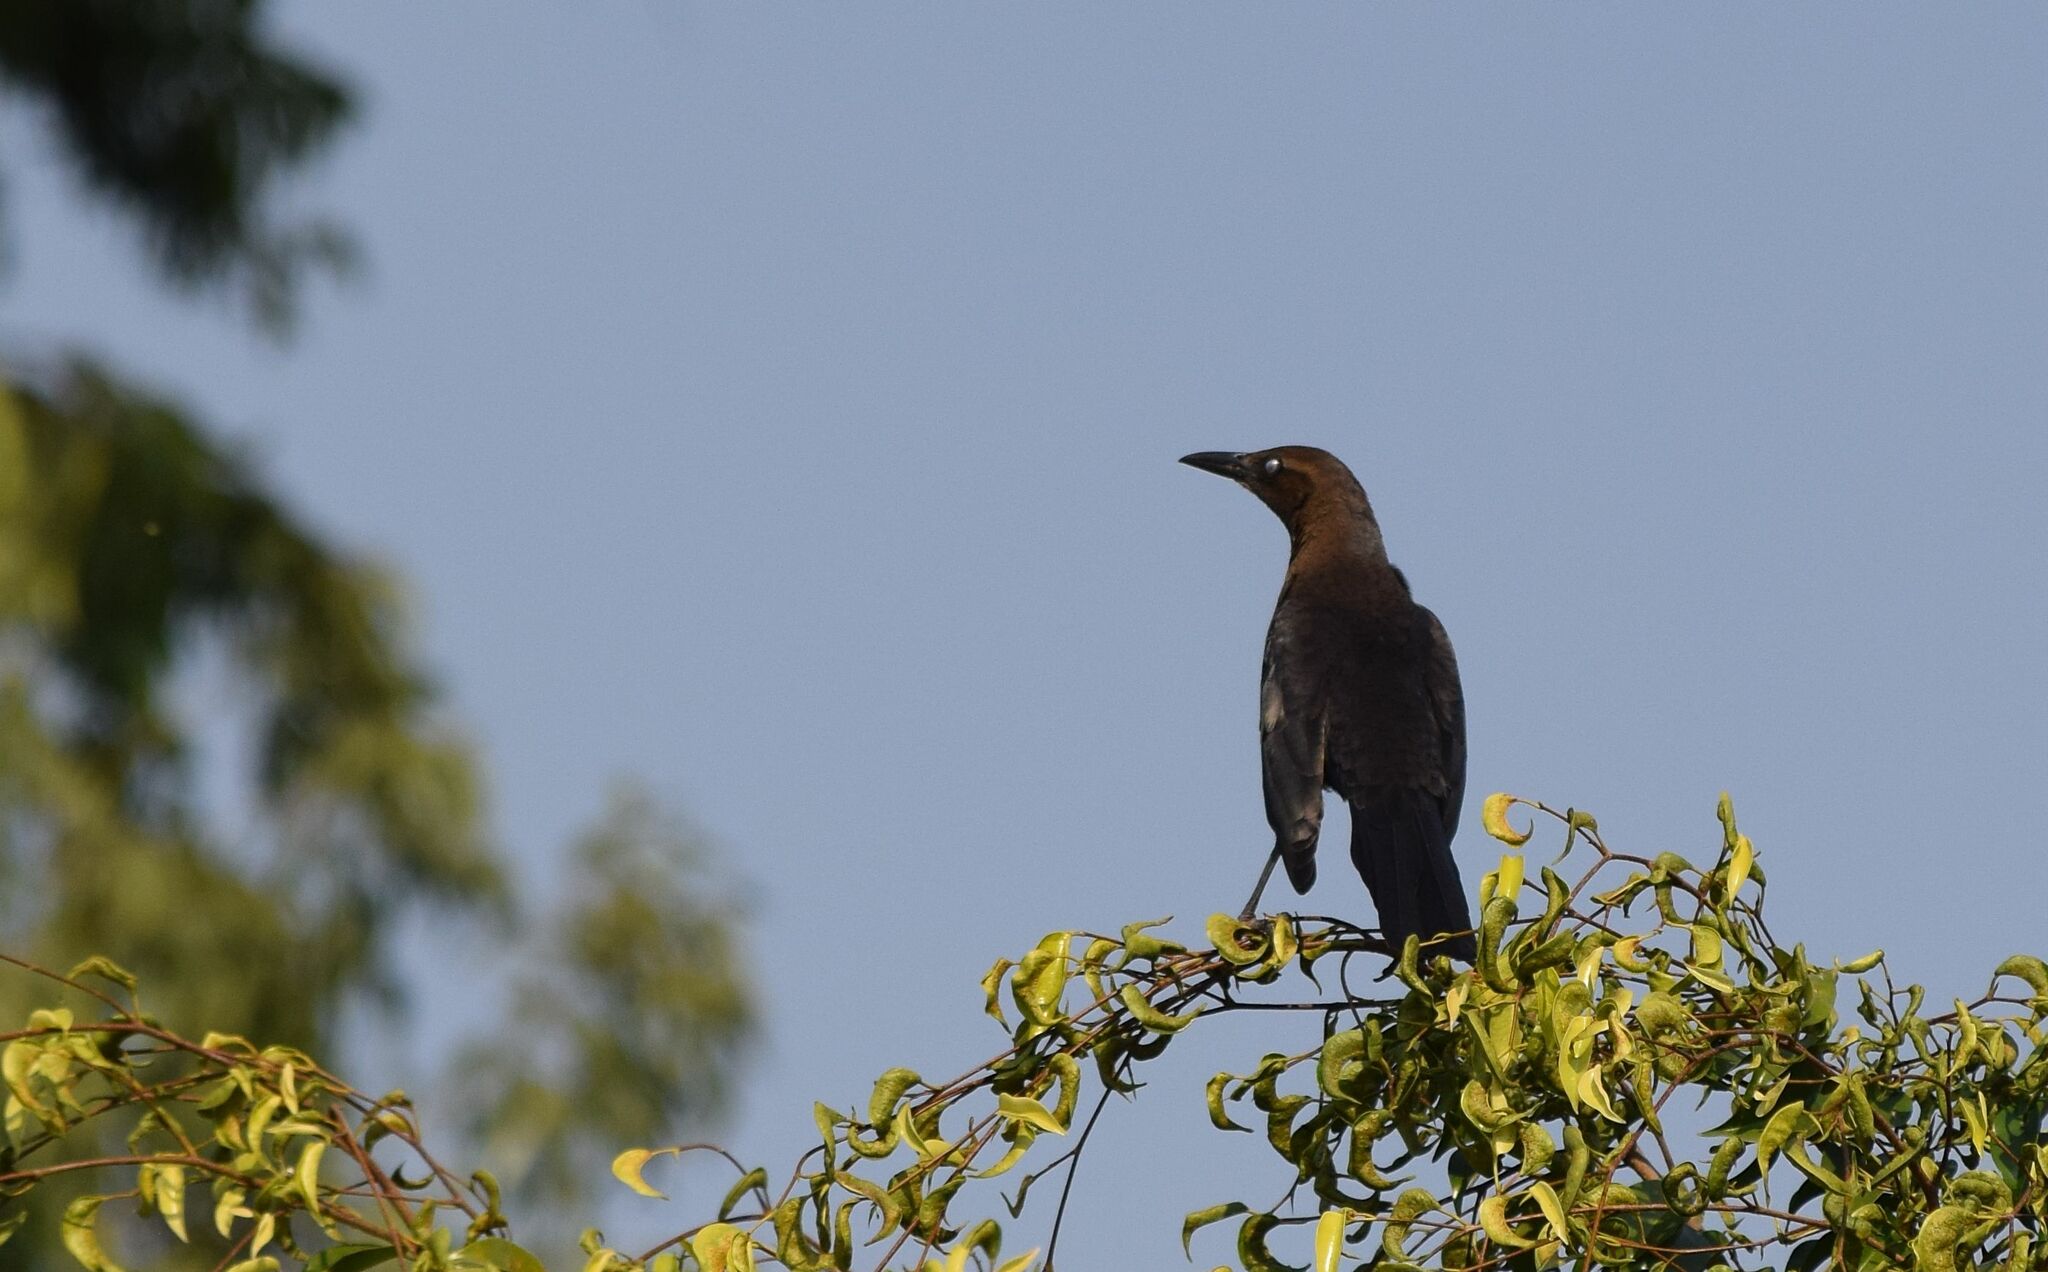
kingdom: Animalia
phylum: Chordata
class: Aves
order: Passeriformes
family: Icteridae
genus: Quiscalus
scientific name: Quiscalus mexicanus
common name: Great-tailed grackle
